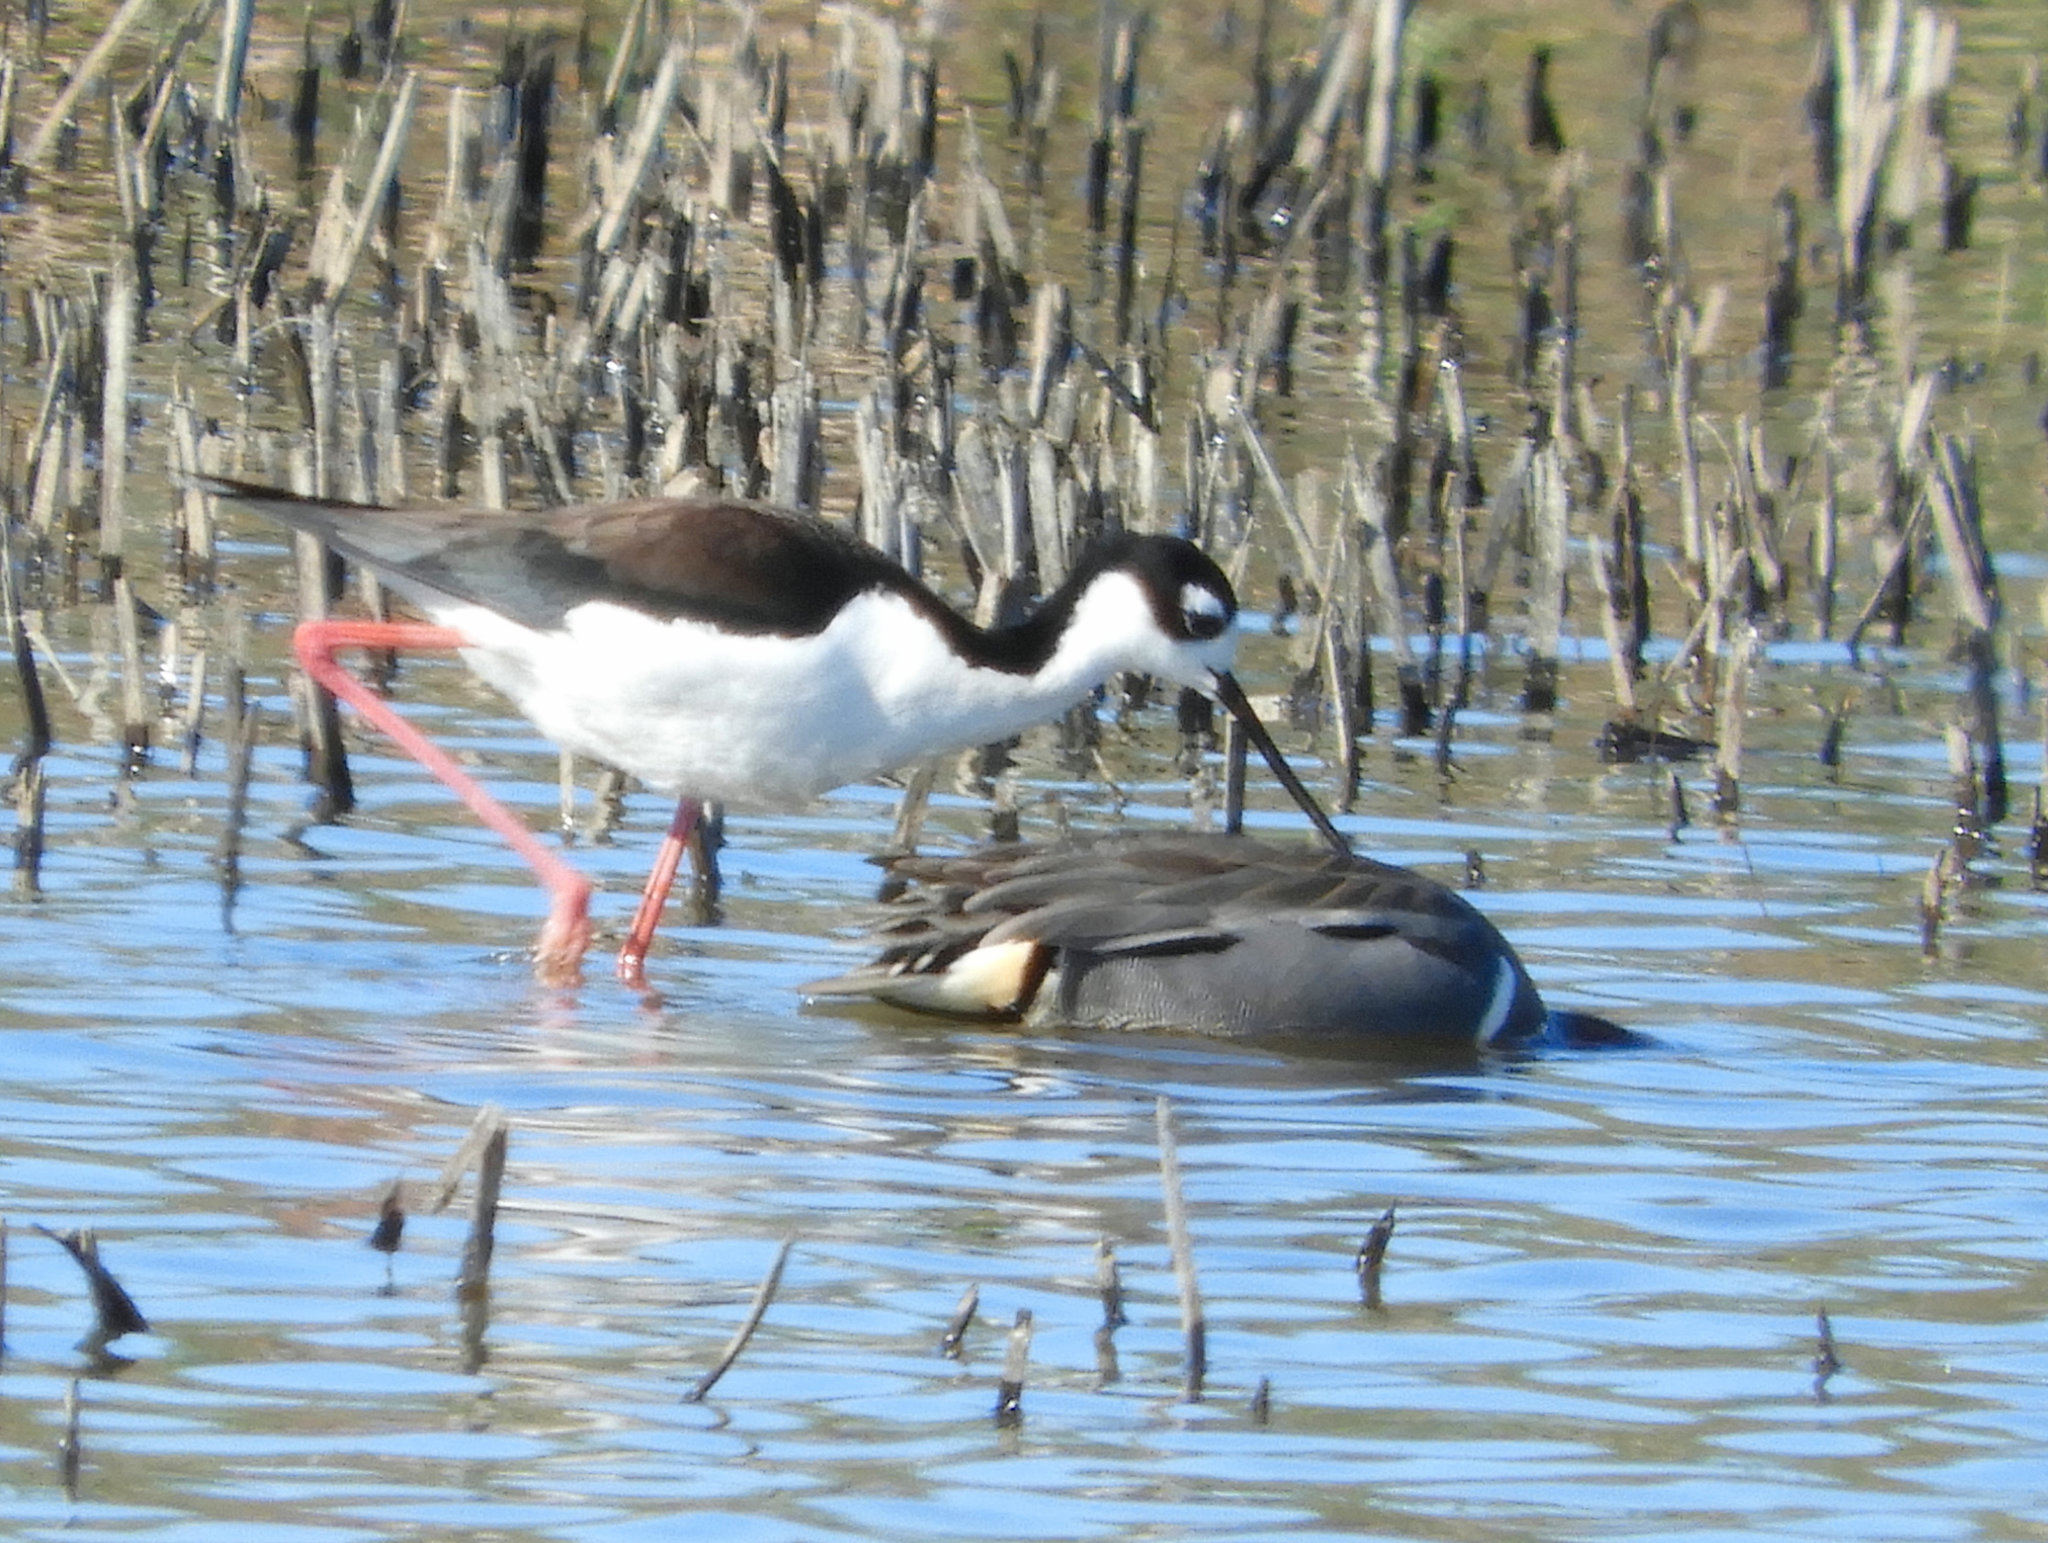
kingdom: Animalia
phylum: Chordata
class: Aves
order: Charadriiformes
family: Recurvirostridae
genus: Himantopus
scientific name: Himantopus mexicanus
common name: Black-necked stilt
